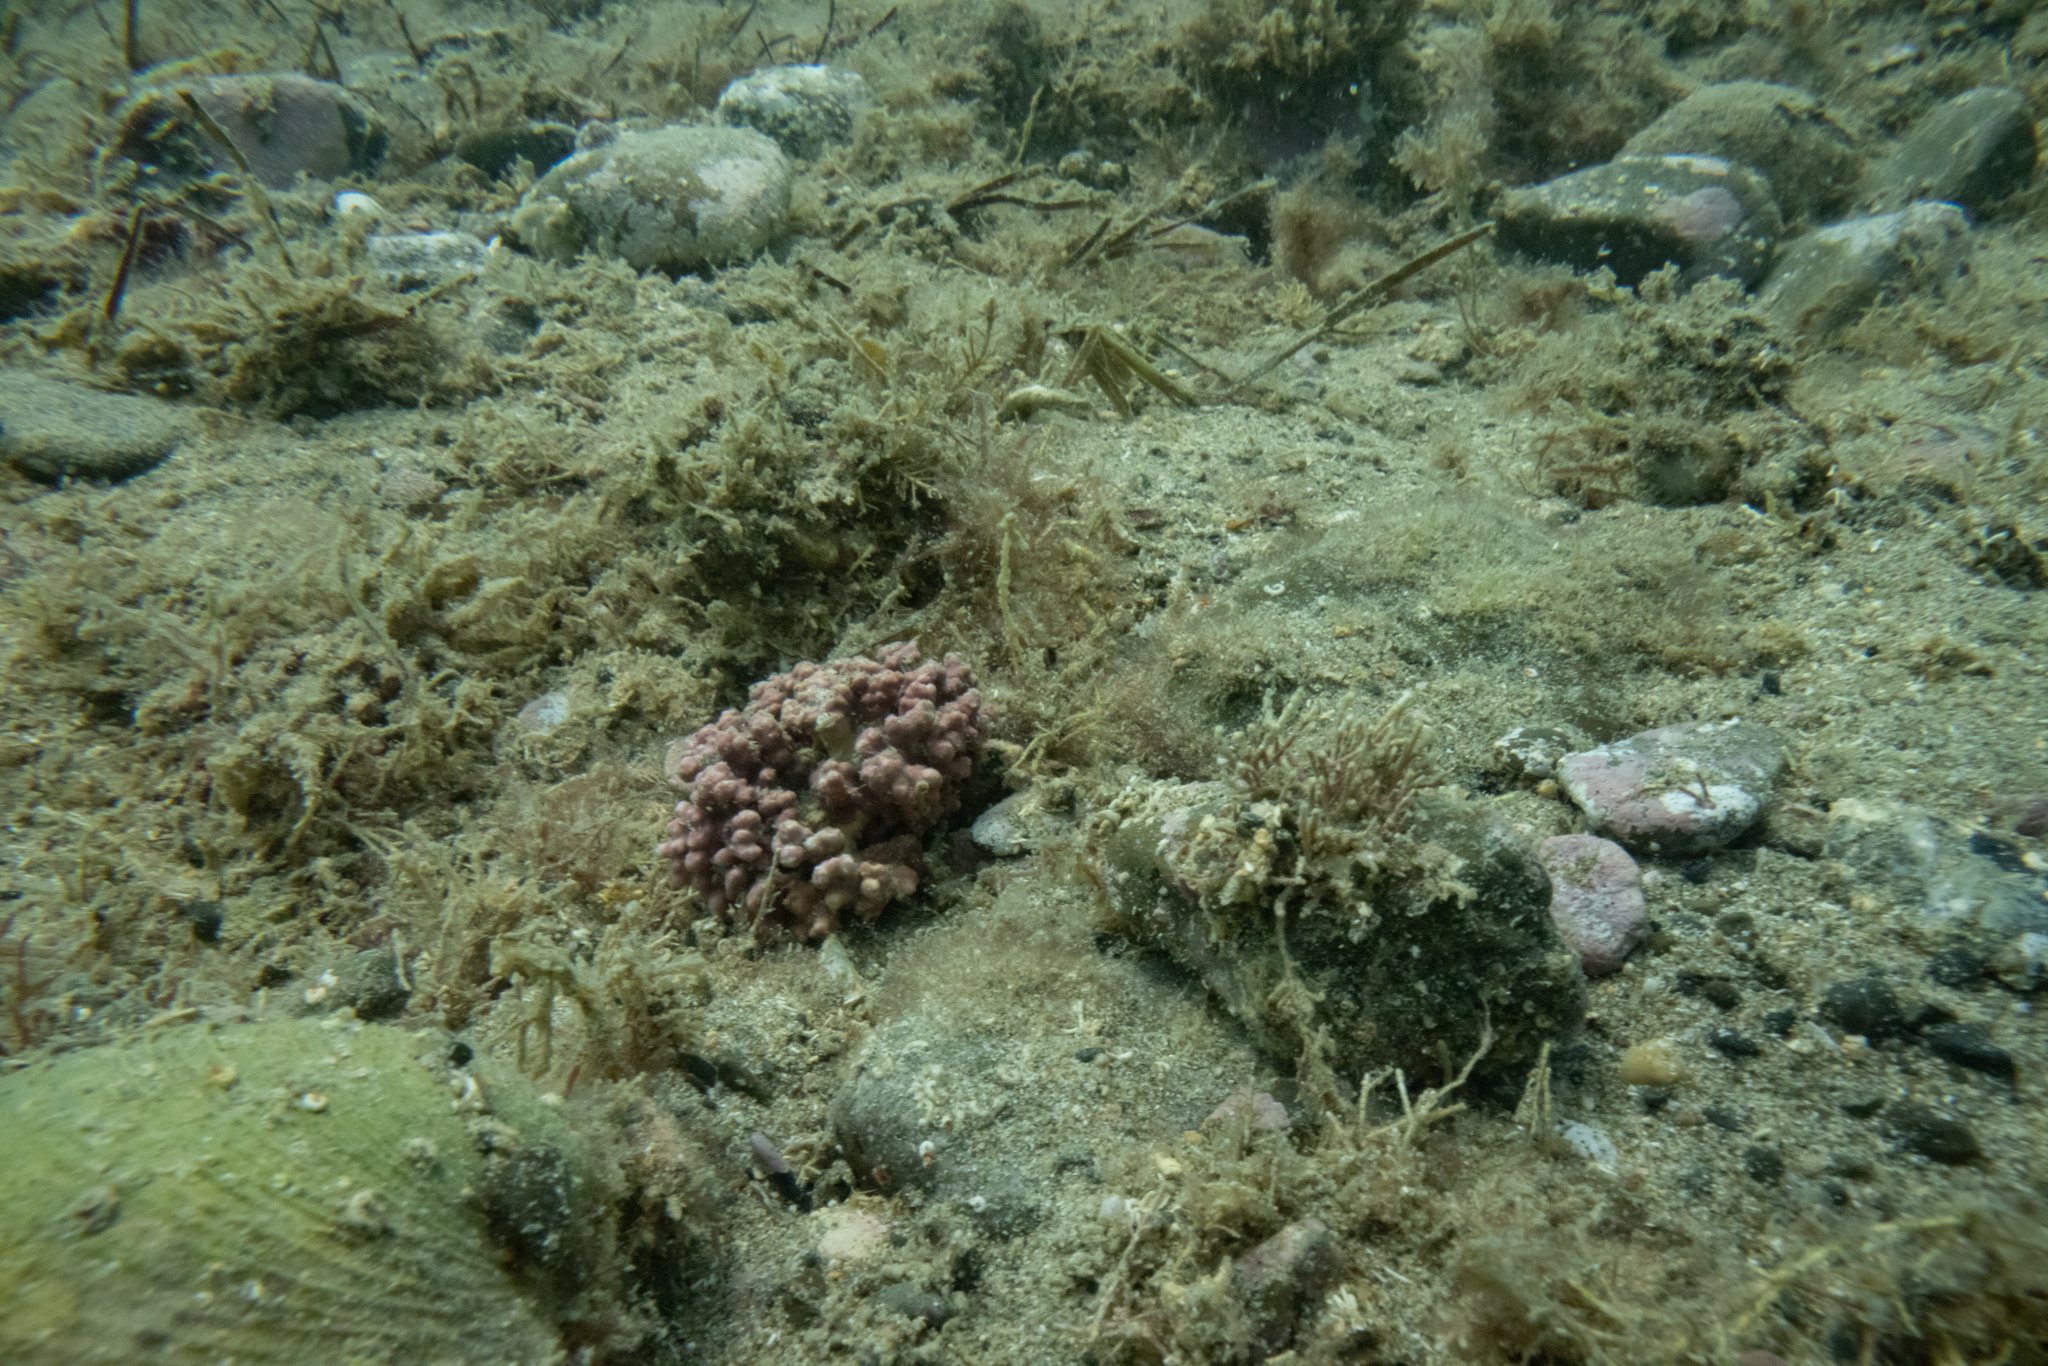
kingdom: Plantae
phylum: Rhodophyta
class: Florideophyceae
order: Corallinales
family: Hapalidiaceae
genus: Lithothamnion
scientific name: Lithothamnion crispatum
